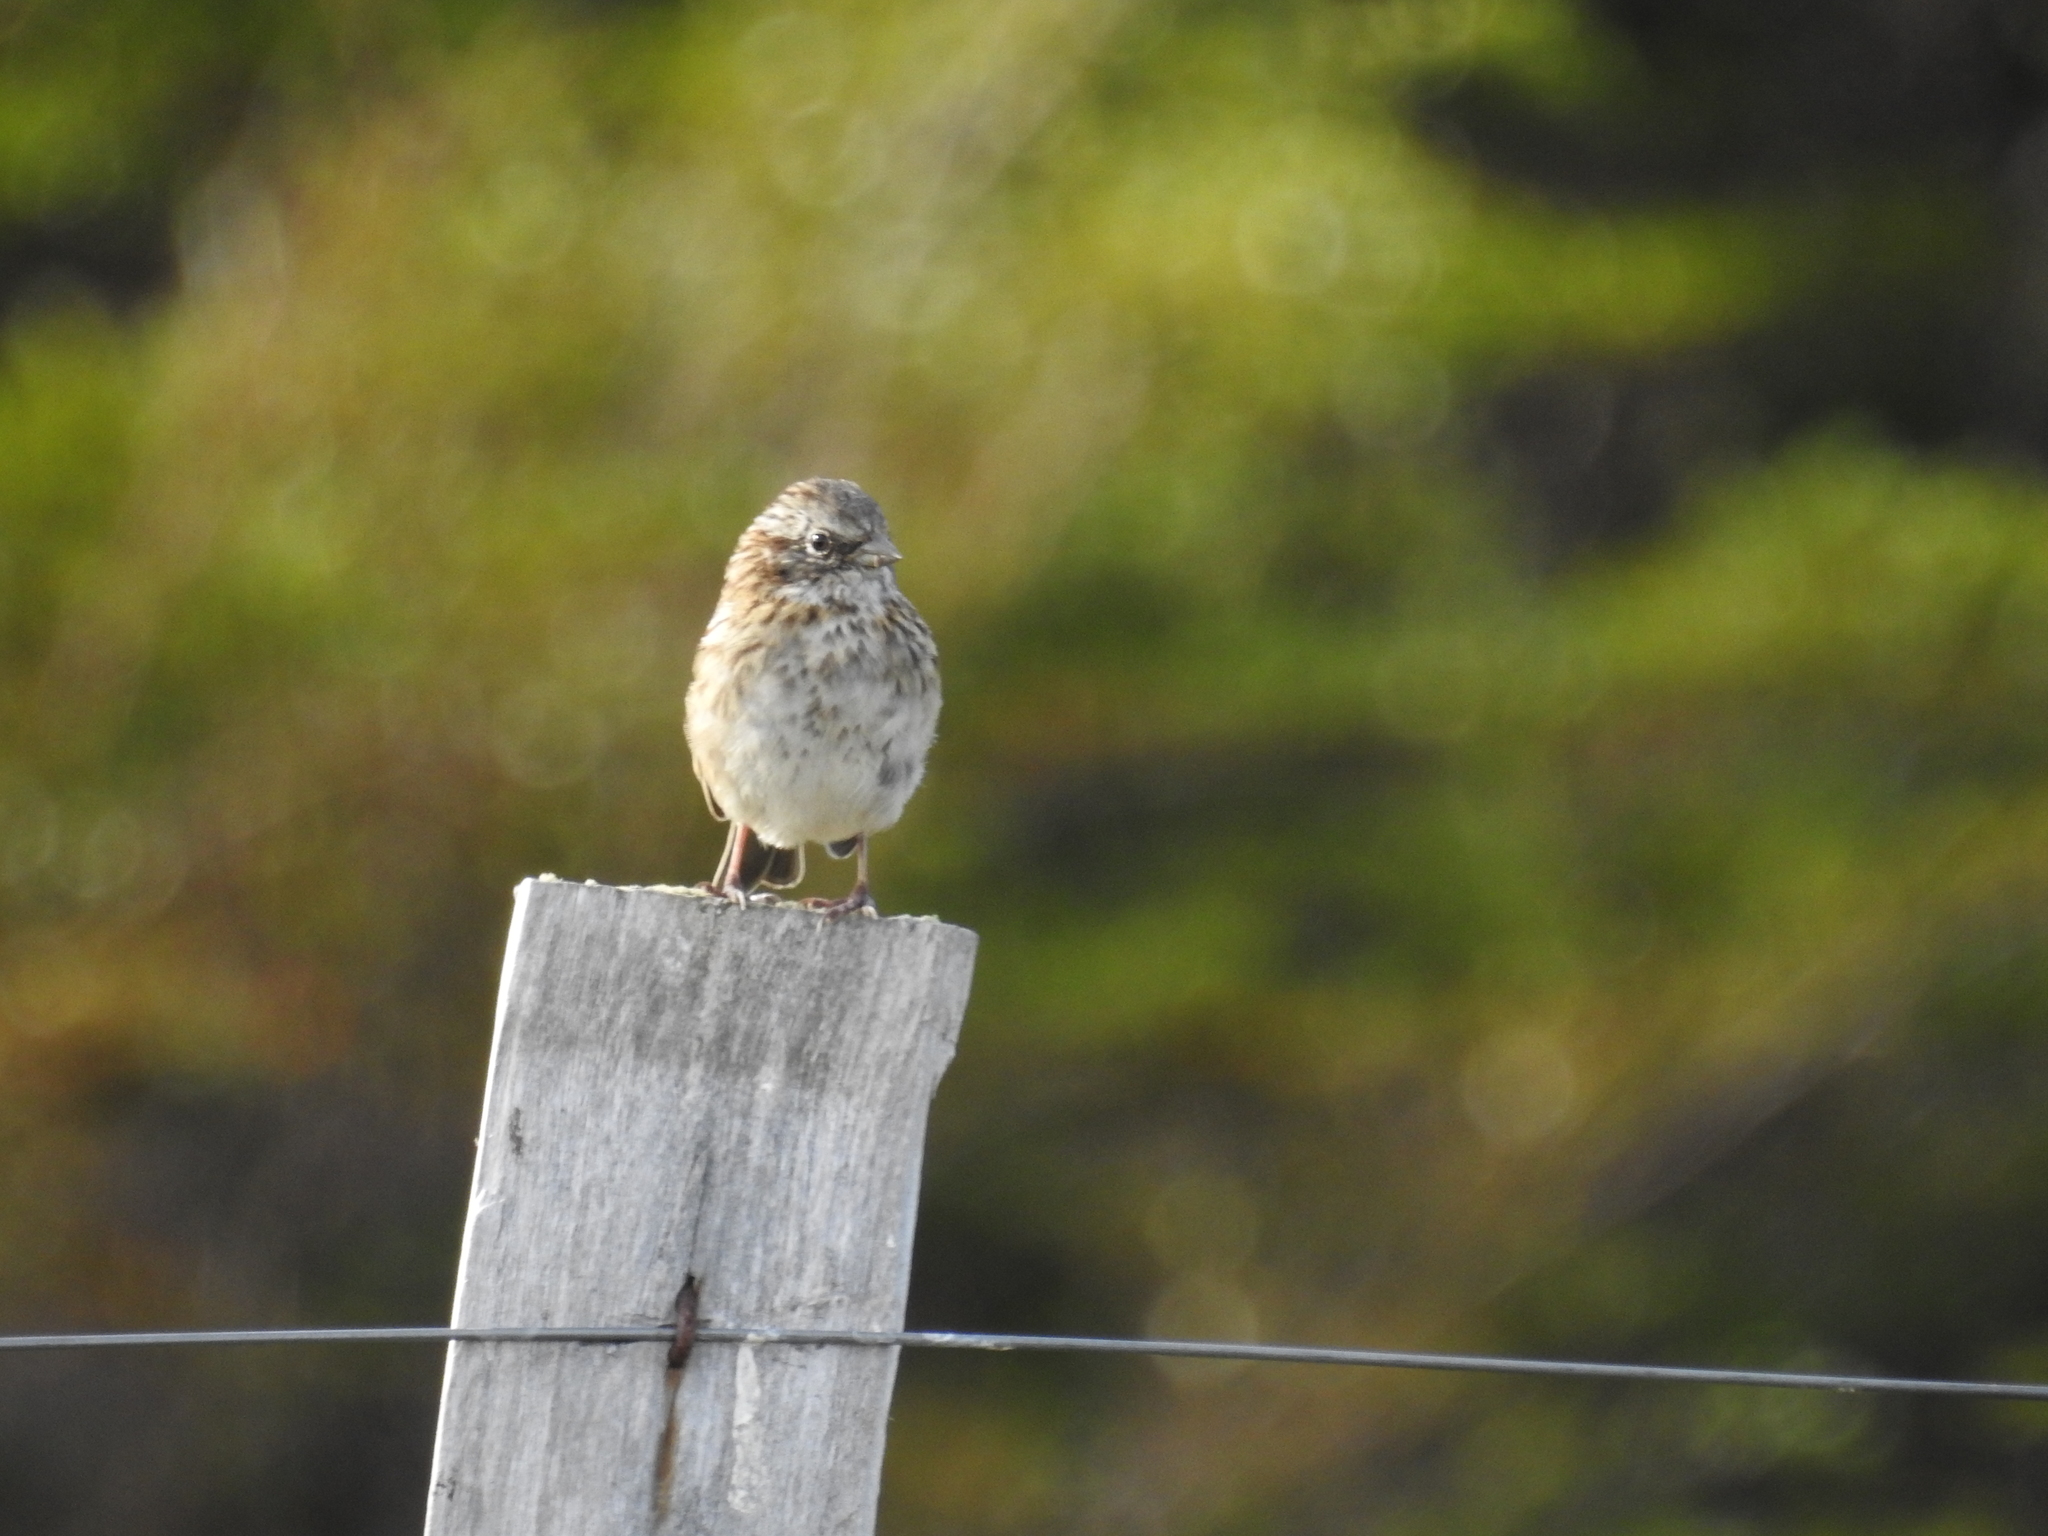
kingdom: Animalia
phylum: Chordata
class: Aves
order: Passeriformes
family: Passerellidae
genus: Zonotrichia
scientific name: Zonotrichia capensis
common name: Rufous-collared sparrow
